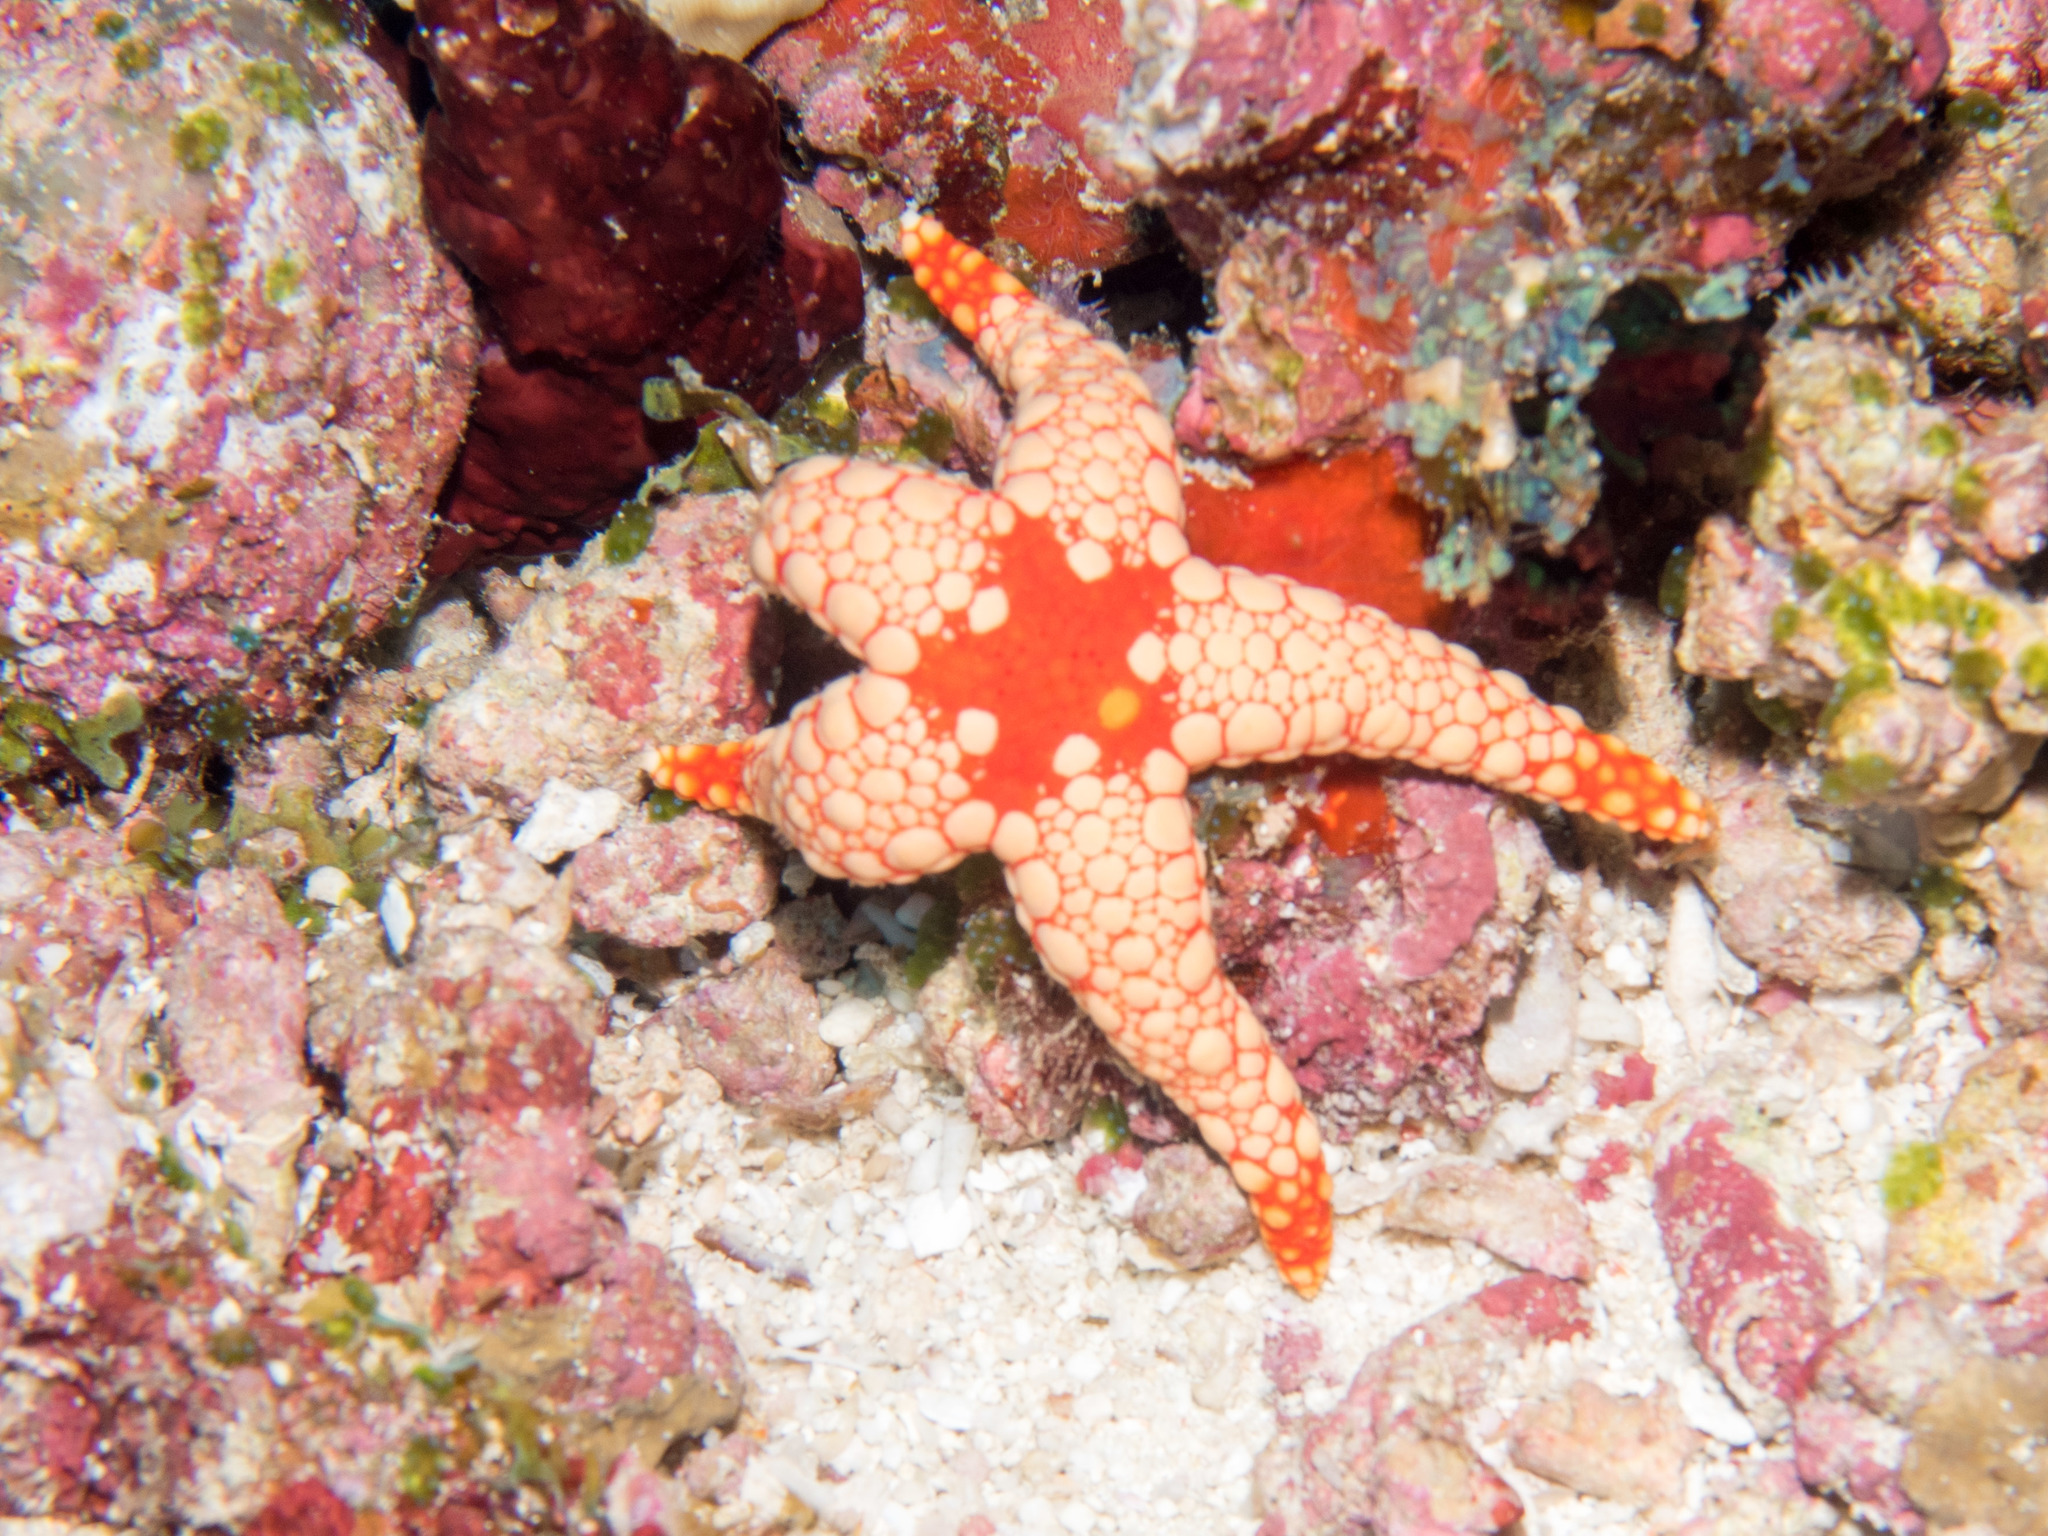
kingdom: Animalia
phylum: Echinodermata
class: Asteroidea
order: Valvatida
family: Goniasteridae
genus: Fromia
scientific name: Fromia nodosa
